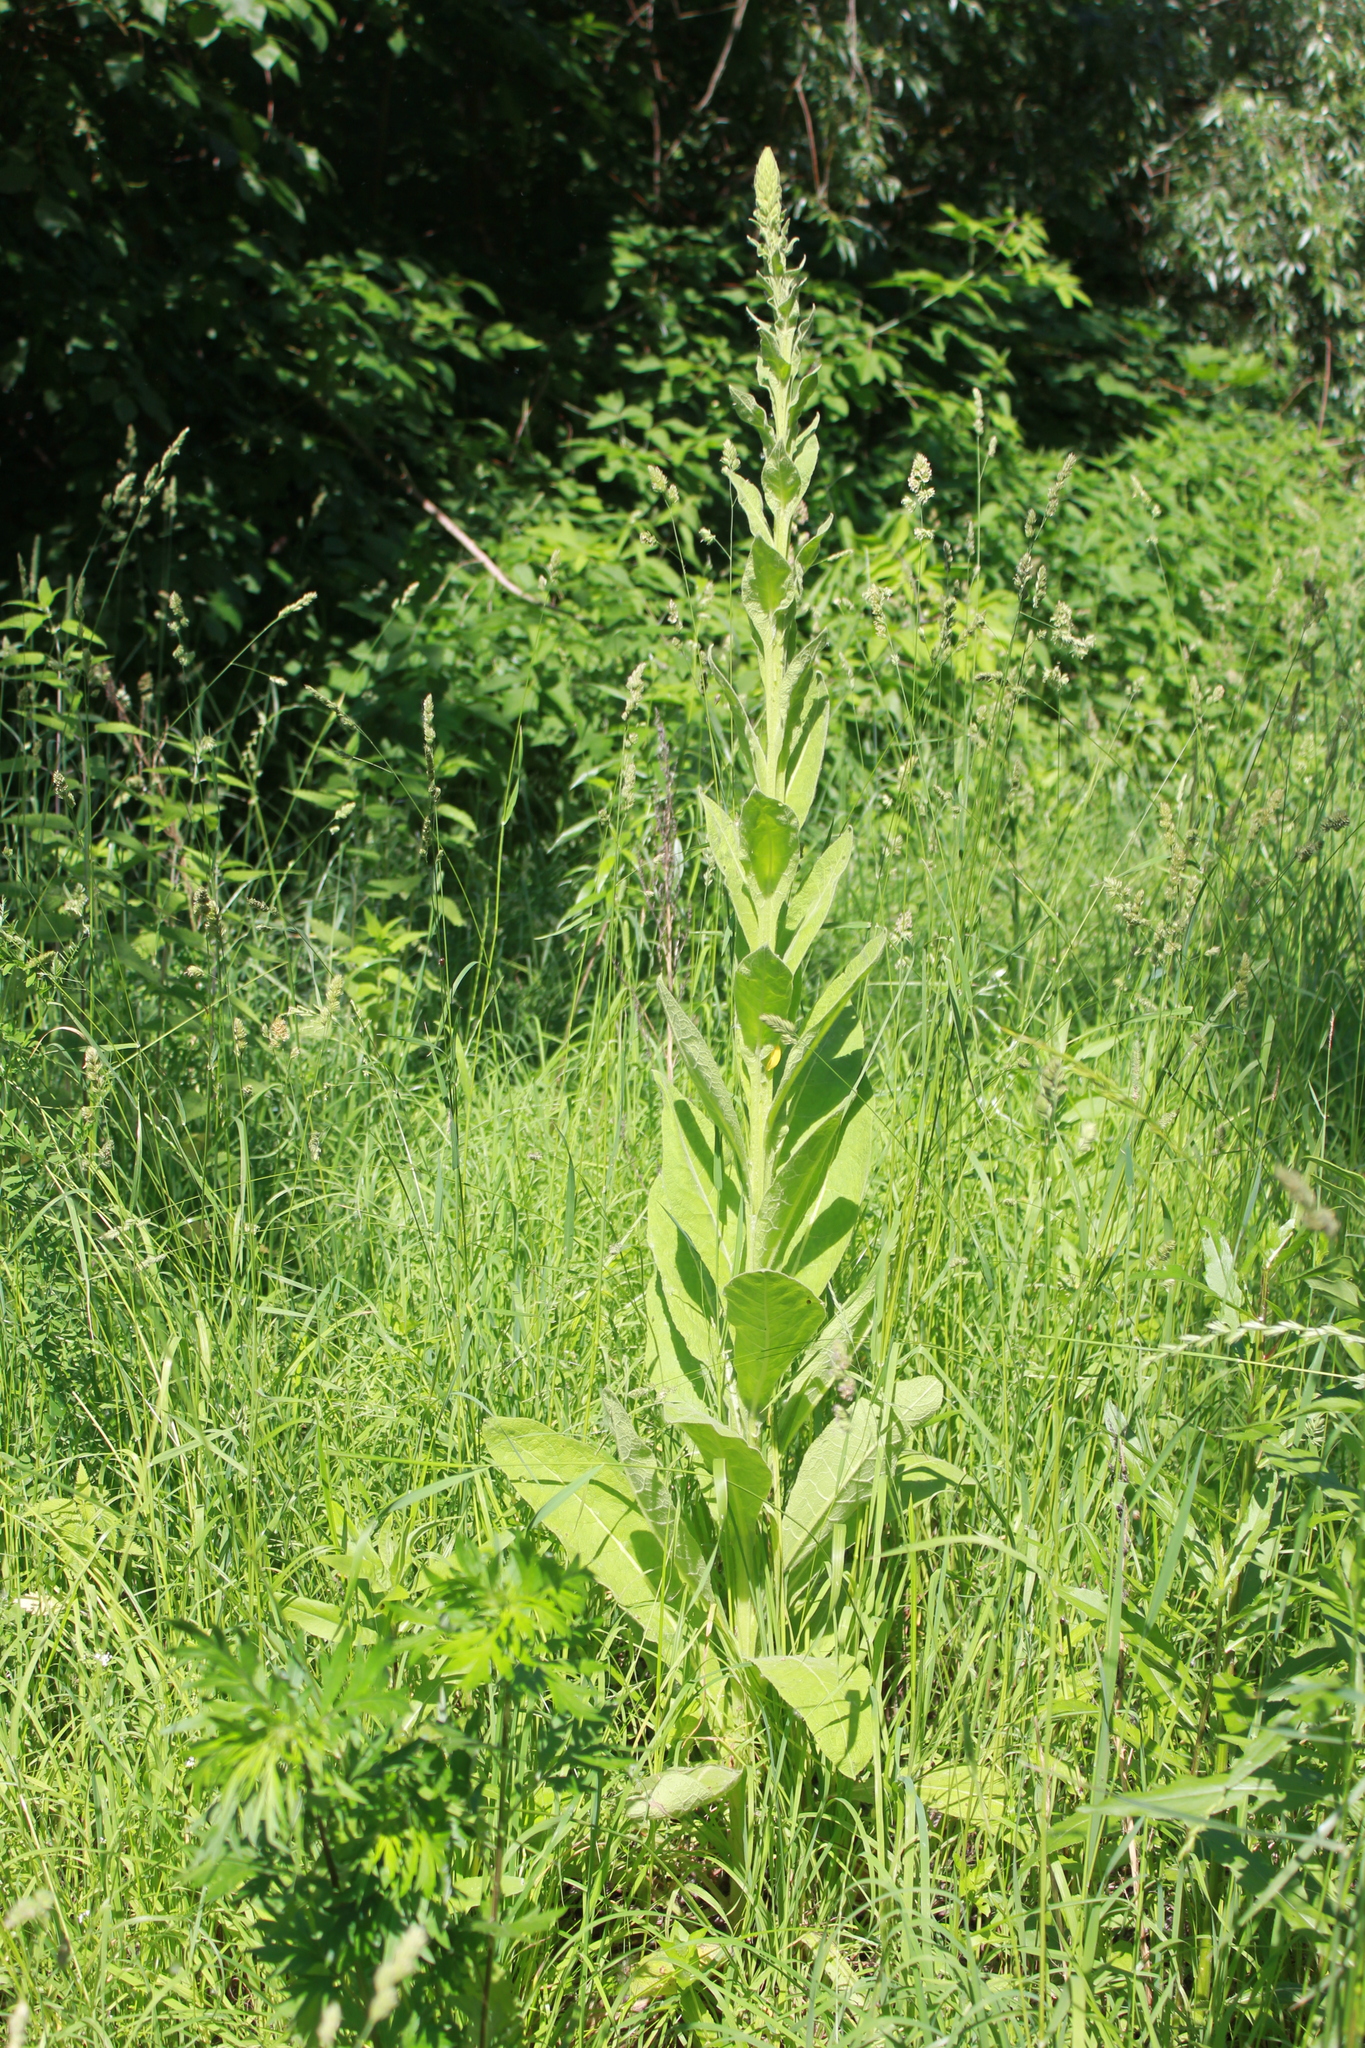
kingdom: Plantae
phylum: Tracheophyta
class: Magnoliopsida
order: Lamiales
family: Scrophulariaceae
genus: Verbascum
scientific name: Verbascum thapsus
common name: Common mullein
